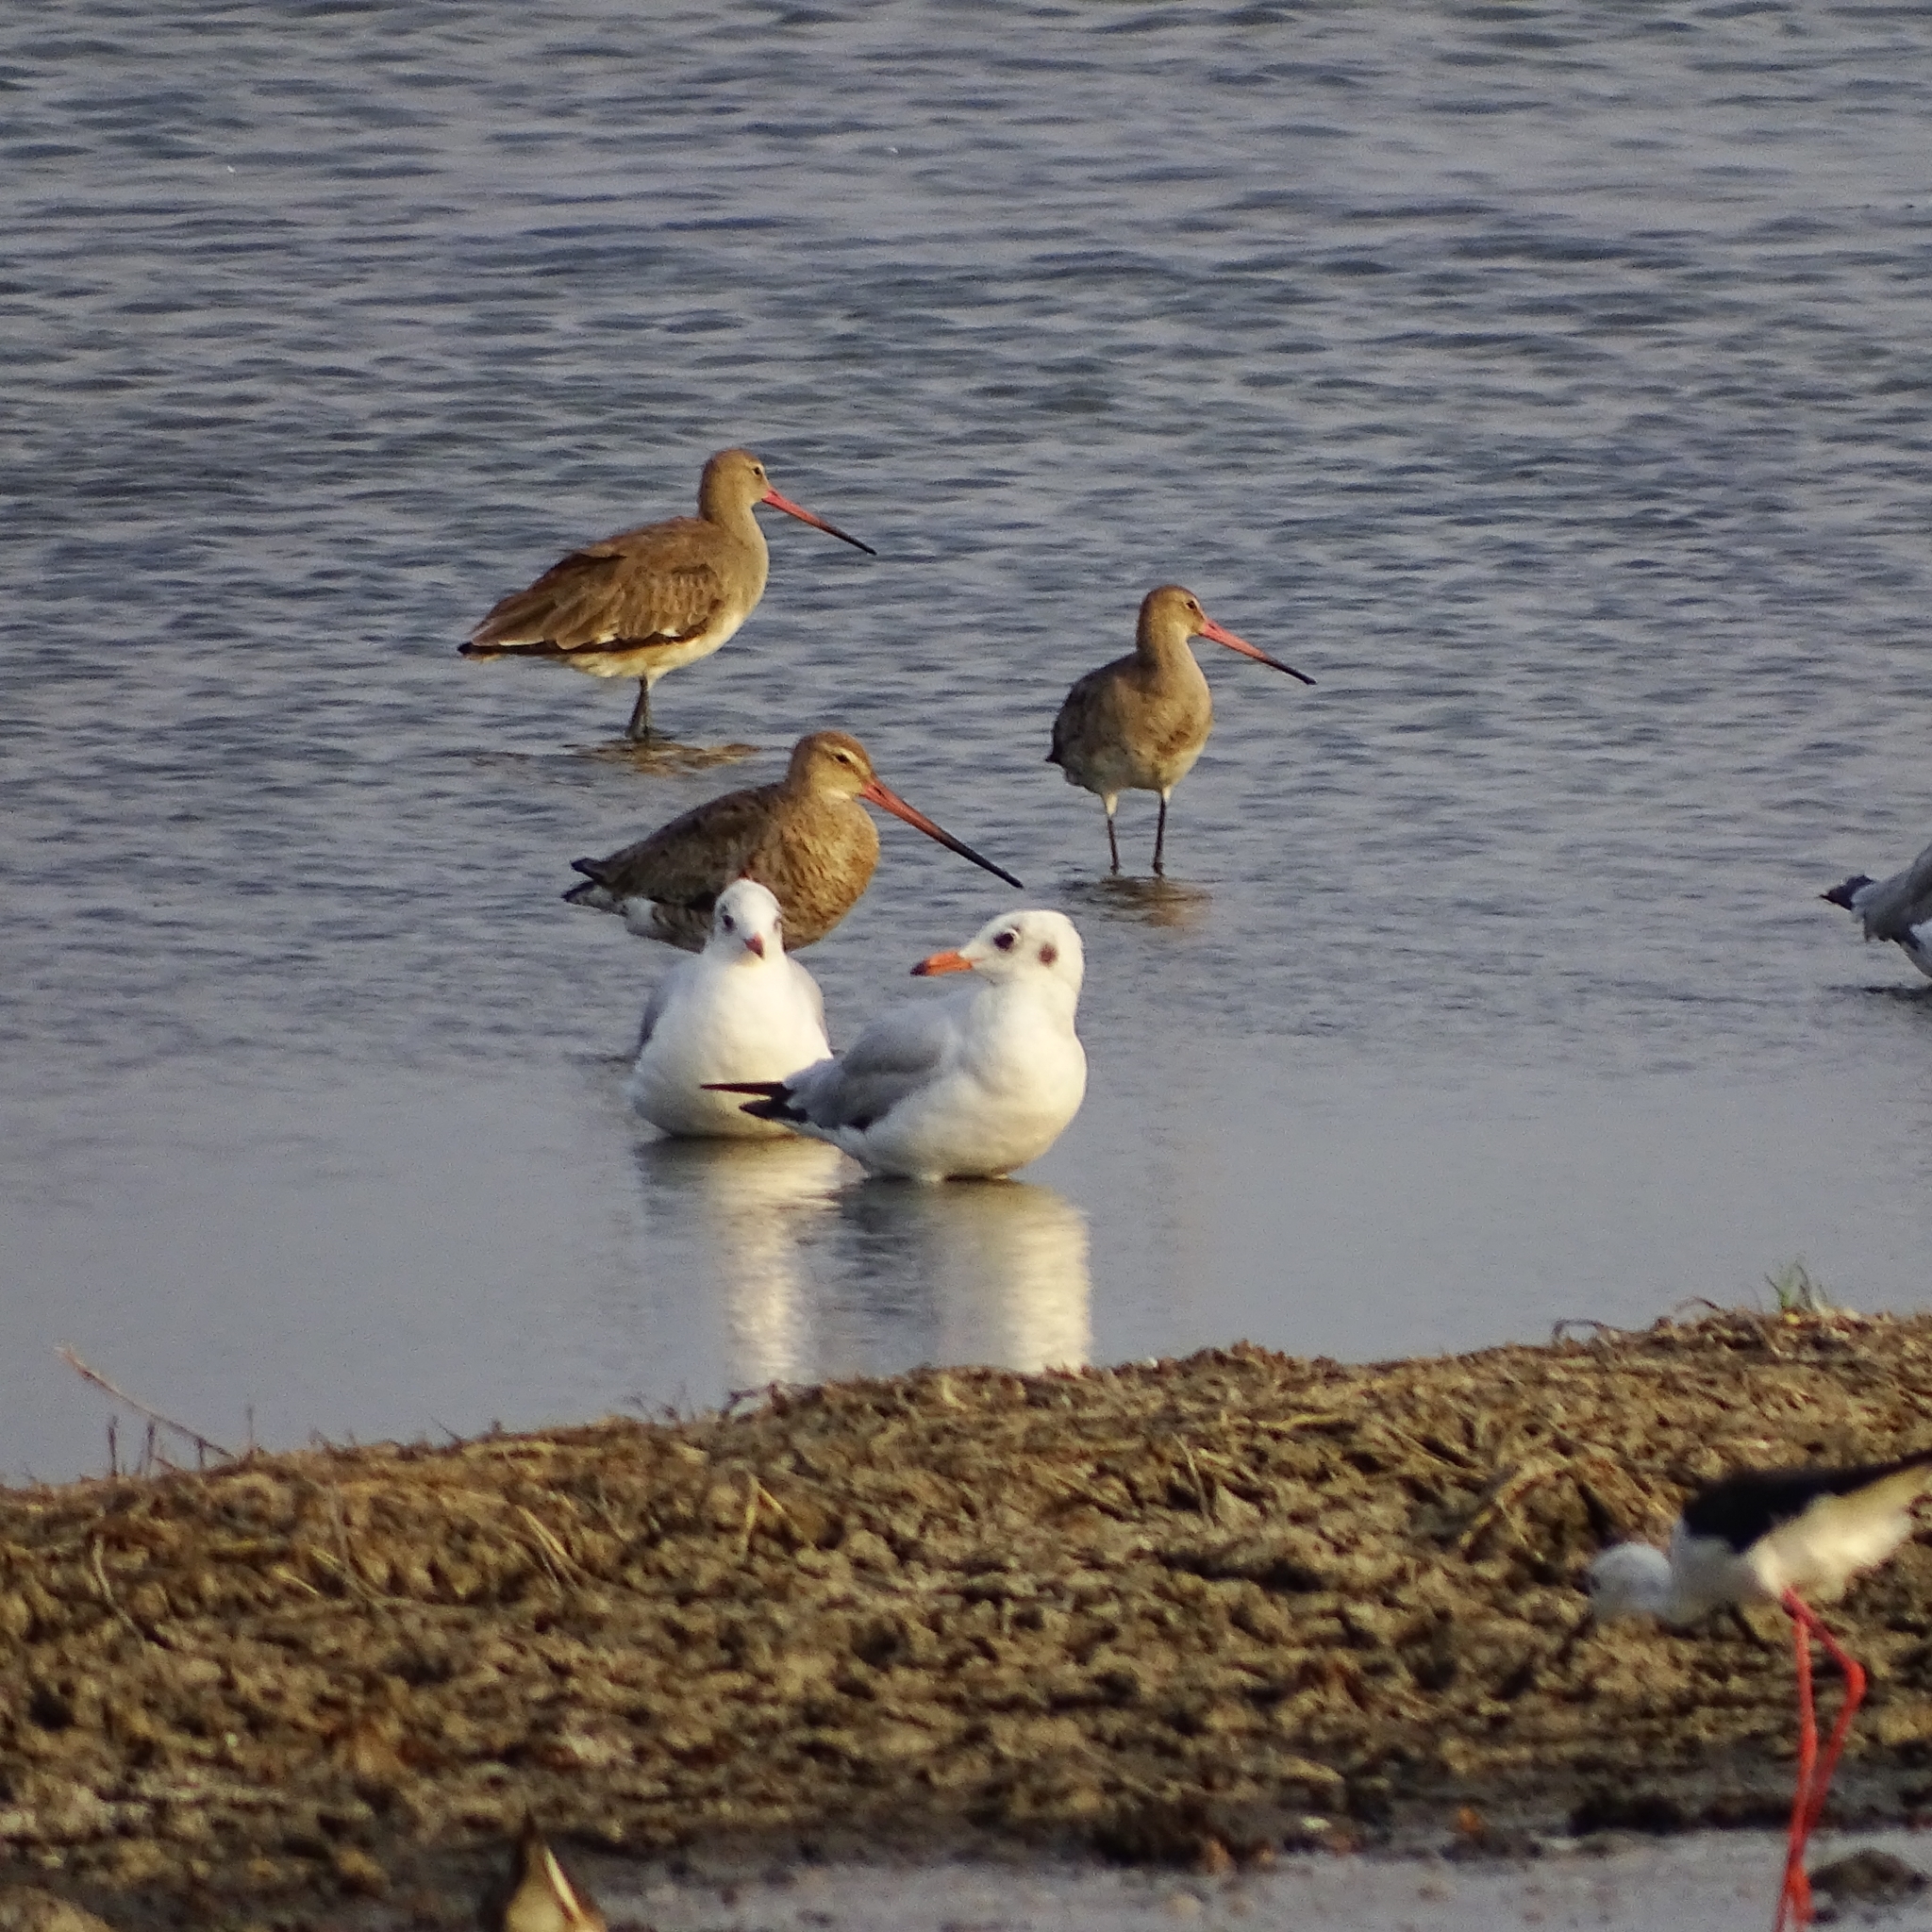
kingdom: Animalia
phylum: Chordata
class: Aves
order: Charadriiformes
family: Scolopacidae
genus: Limosa
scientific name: Limosa limosa
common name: Black-tailed godwit
